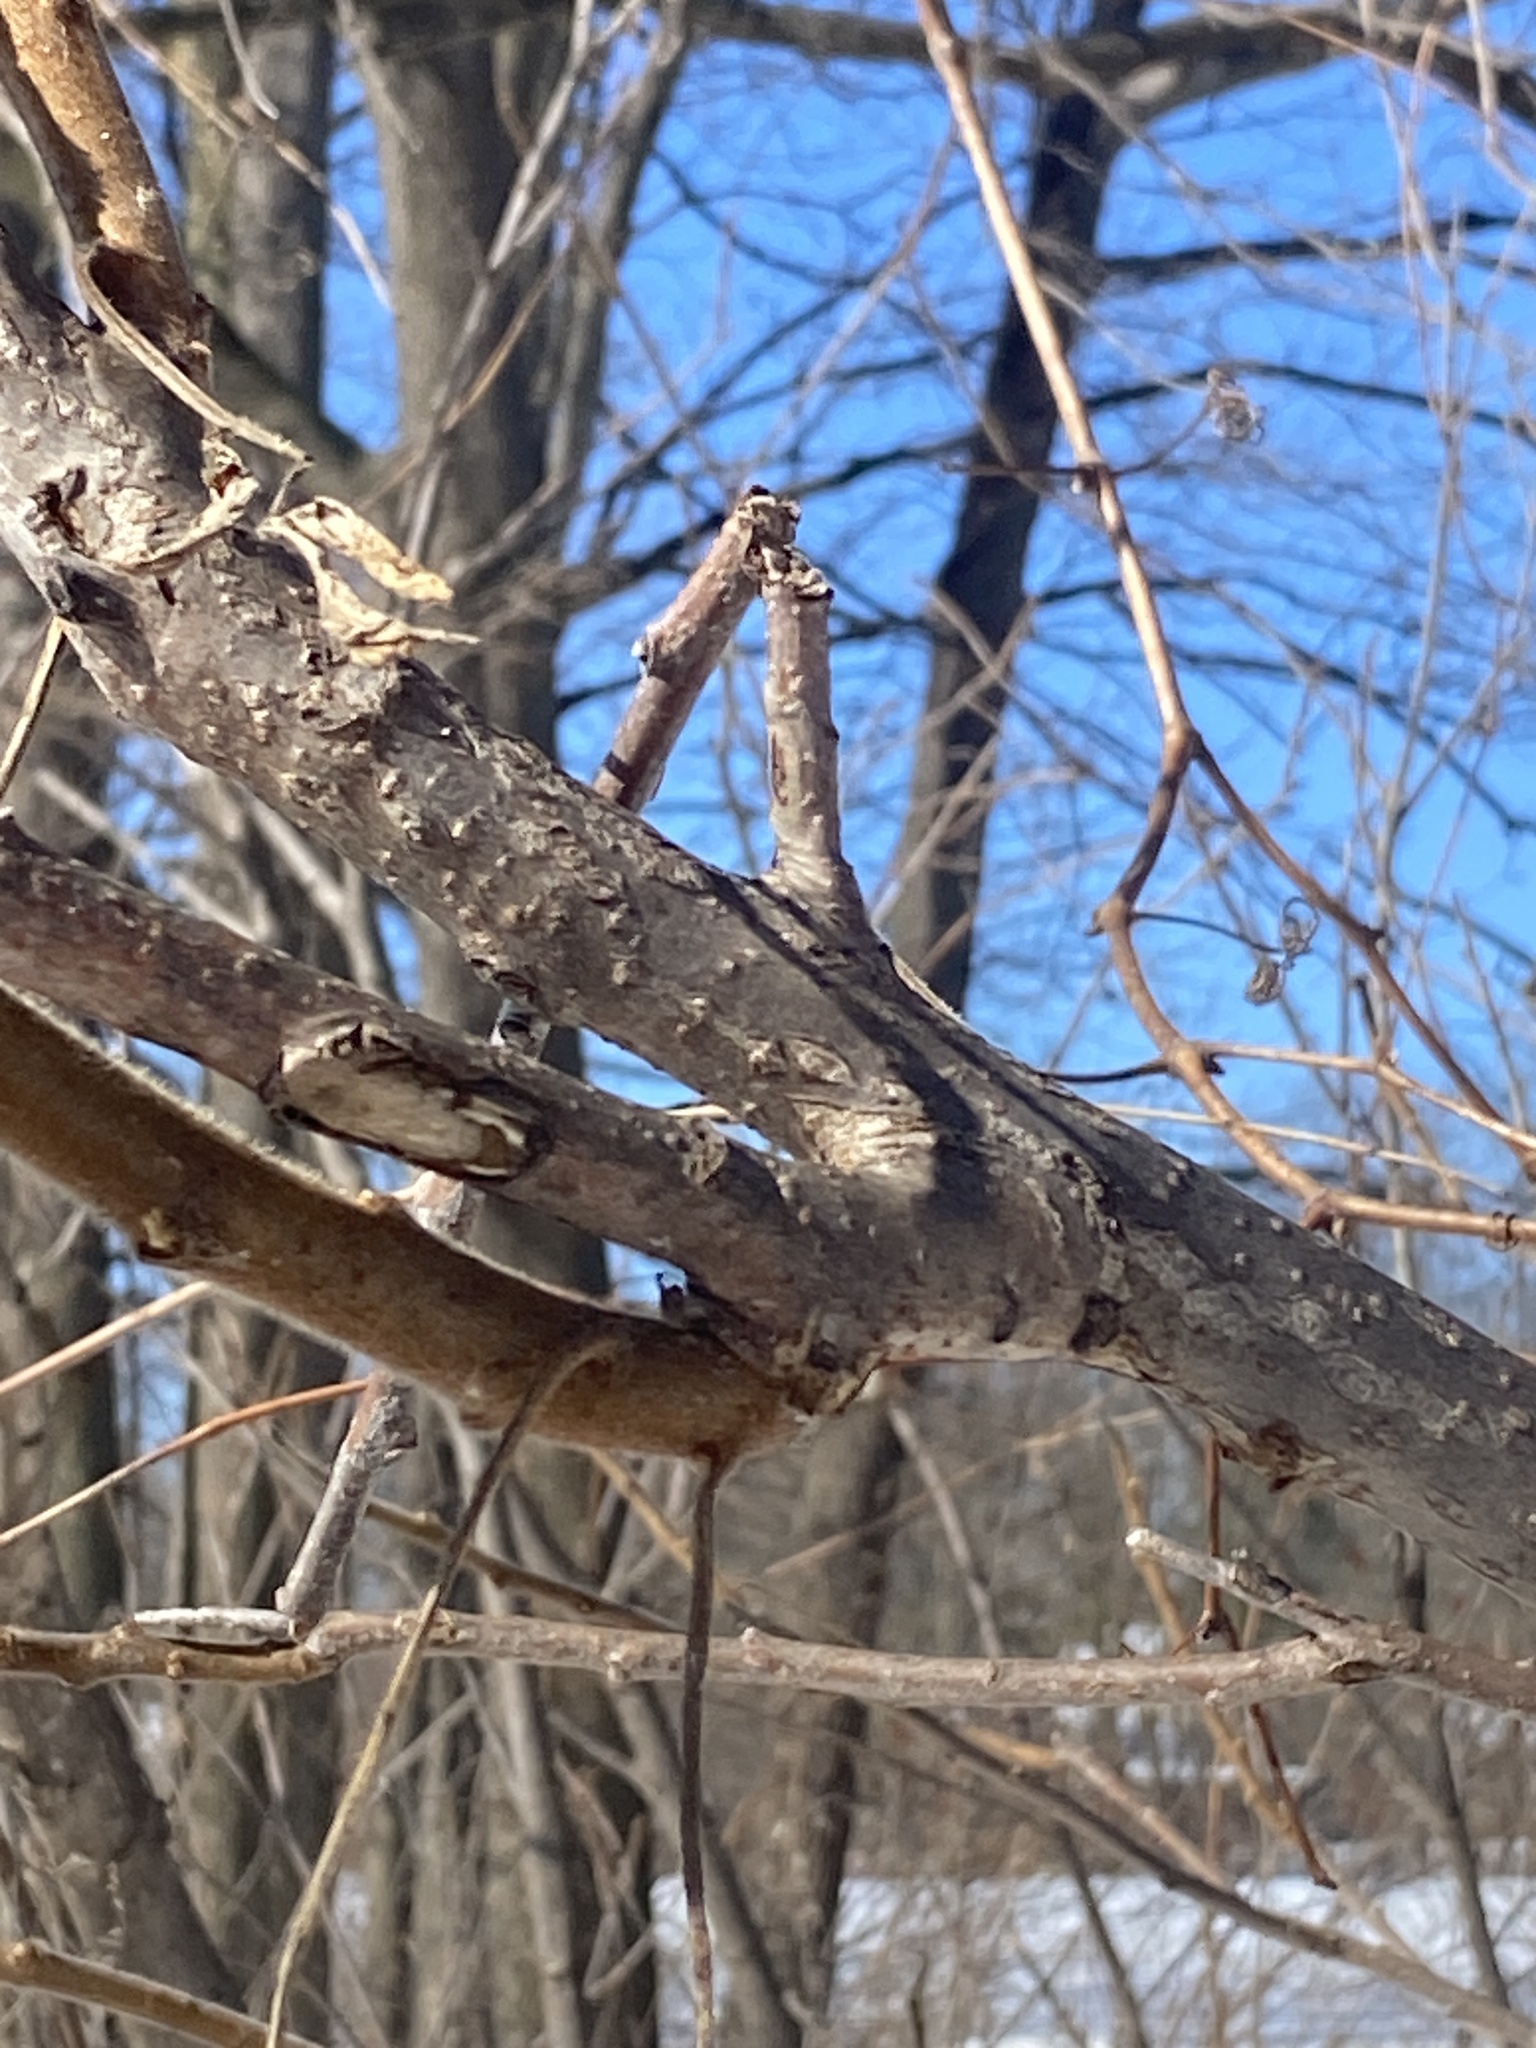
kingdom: Plantae
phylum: Tracheophyta
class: Magnoliopsida
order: Sapindales
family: Anacardiaceae
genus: Rhus
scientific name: Rhus typhina
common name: Staghorn sumac
